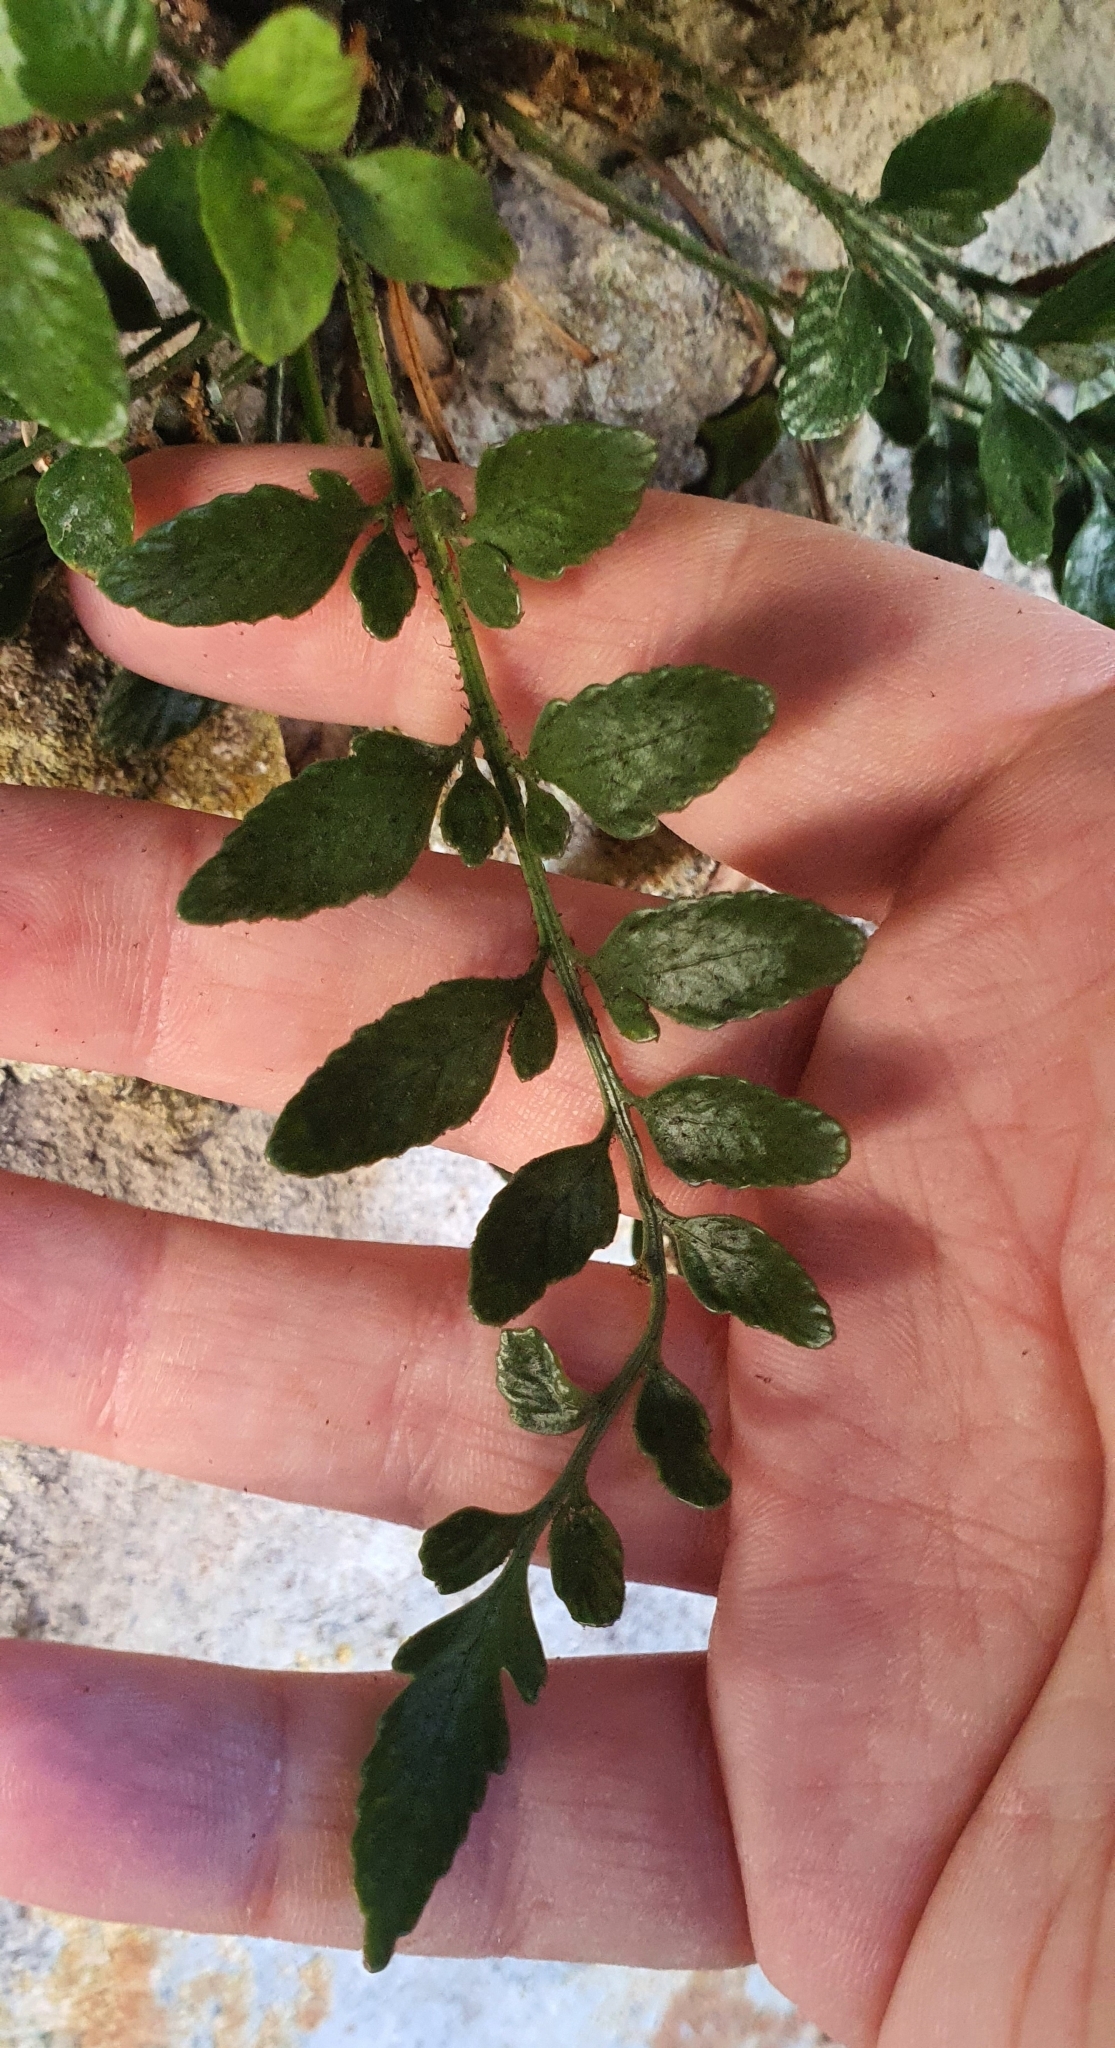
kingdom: Plantae
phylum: Tracheophyta
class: Polypodiopsida
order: Polypodiales
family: Aspleniaceae
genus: Asplenium
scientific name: Asplenium lyallii
